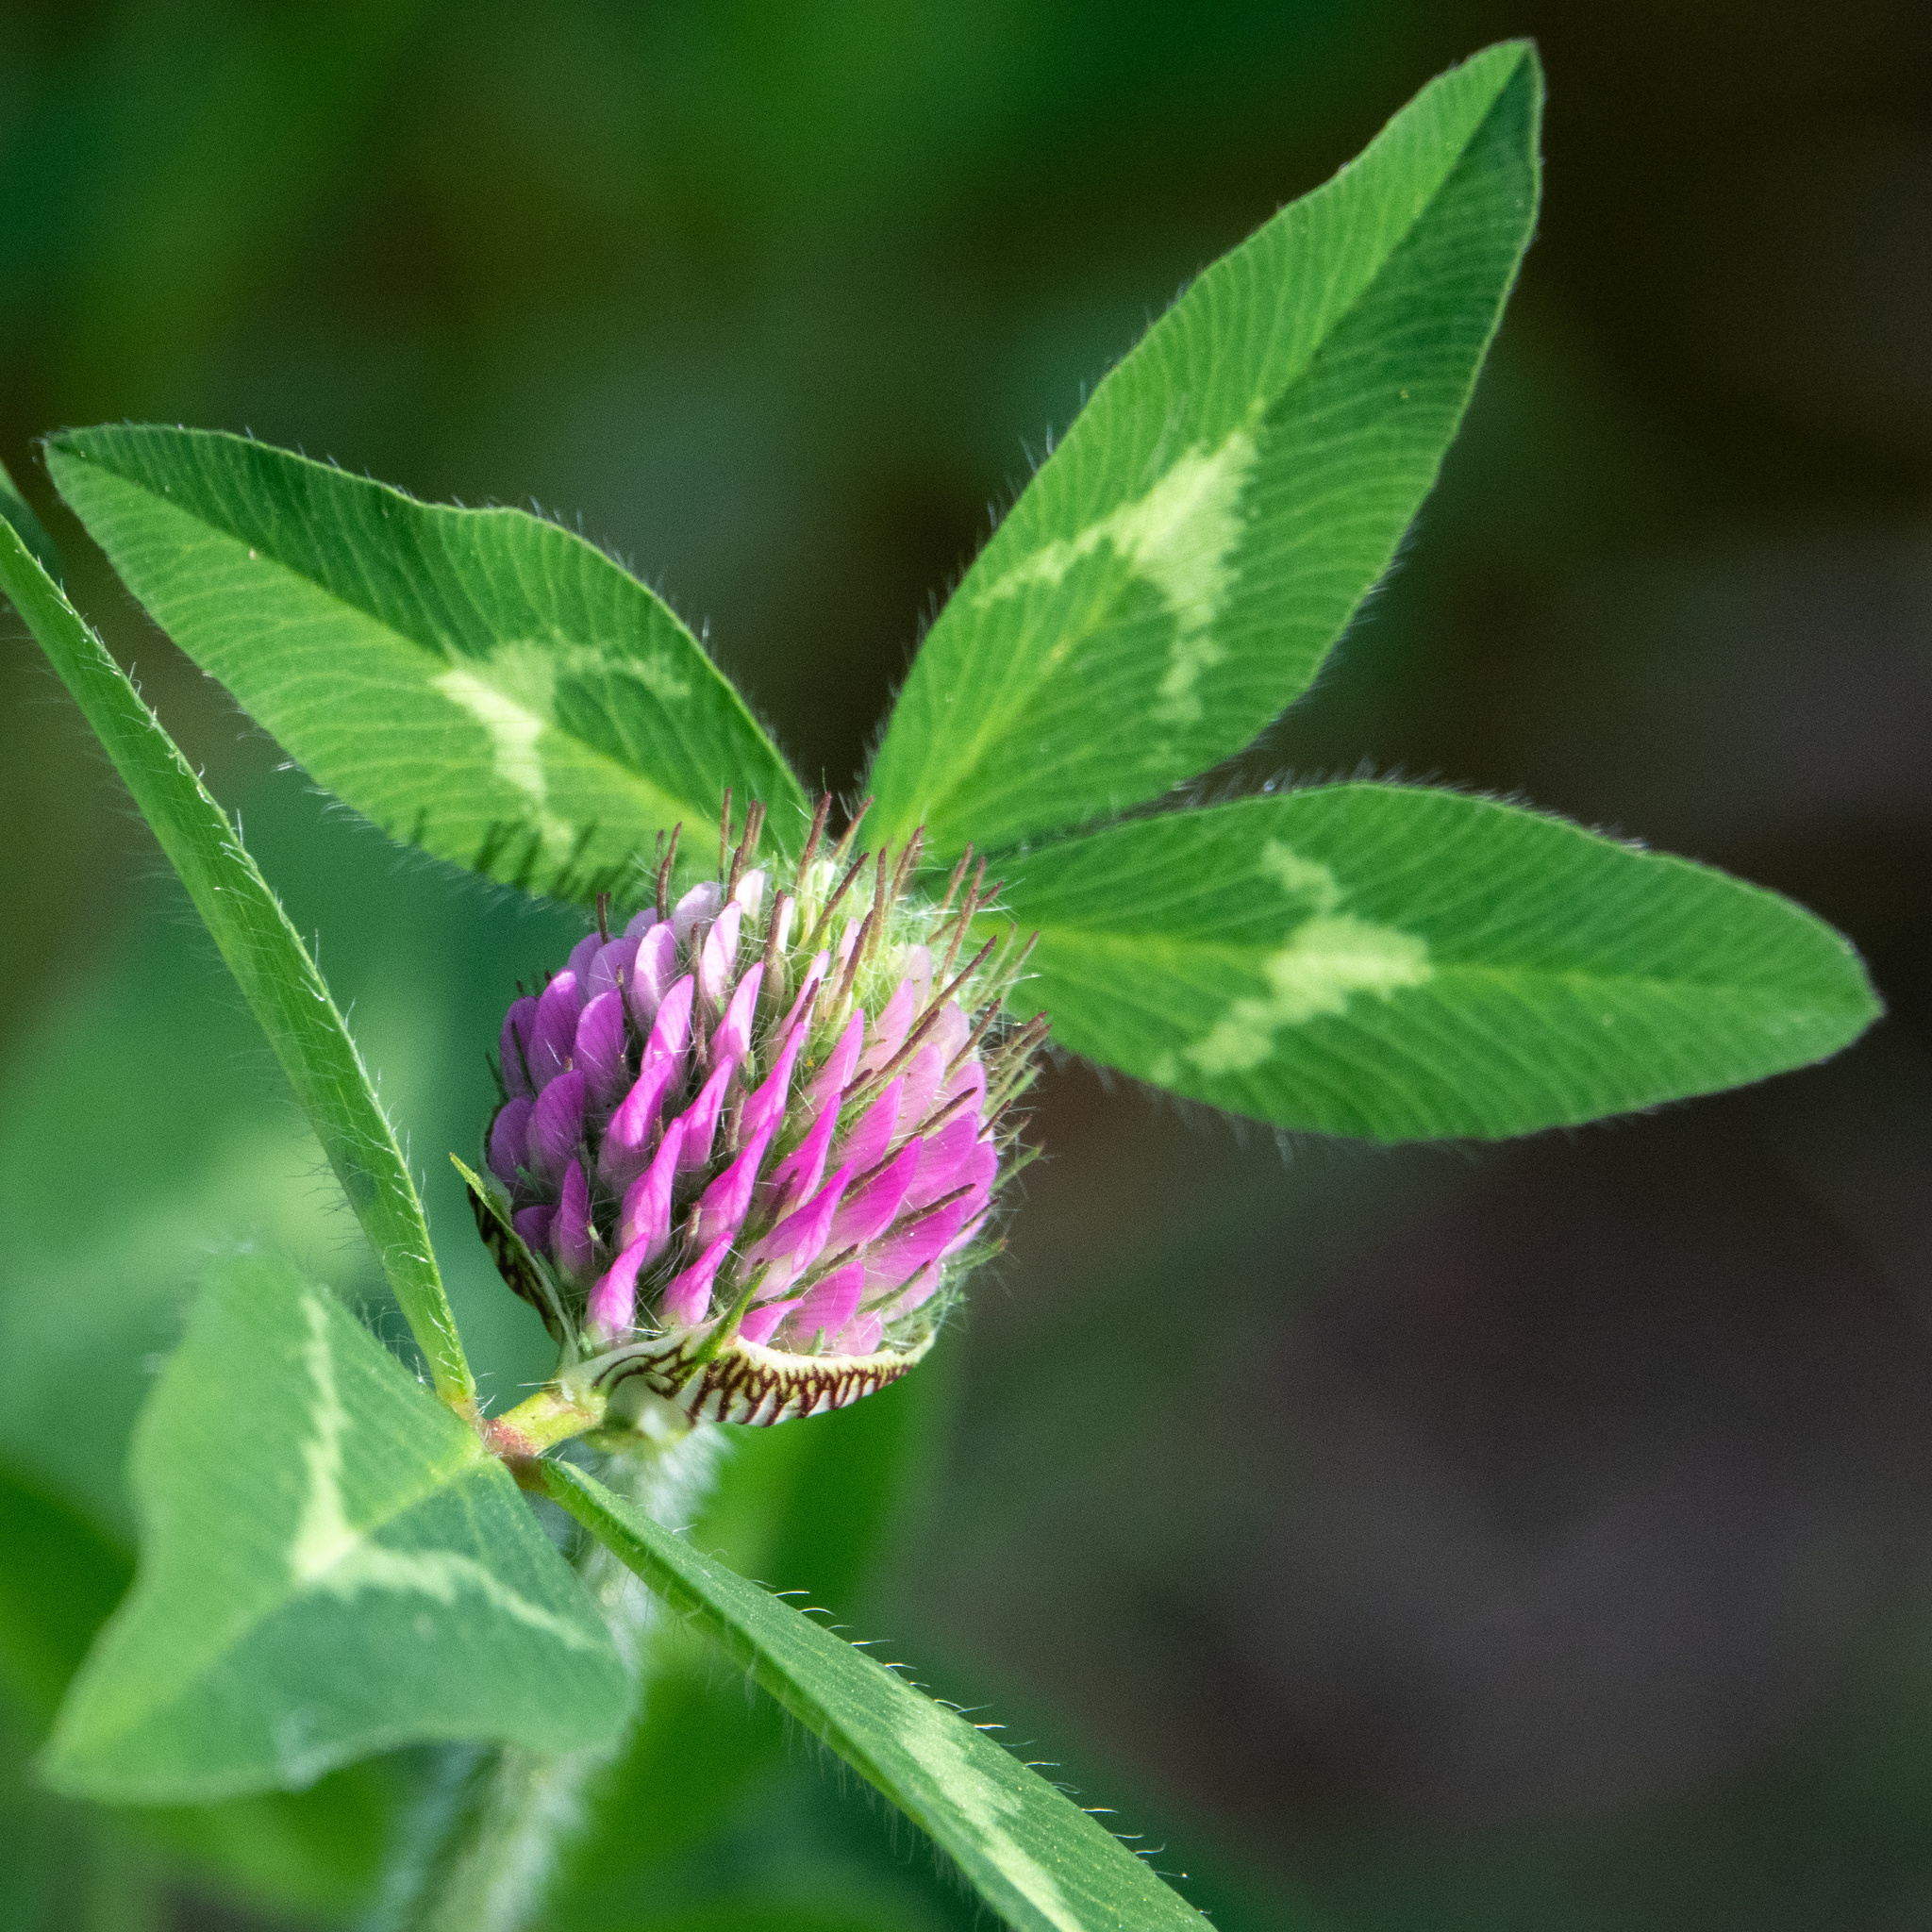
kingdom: Plantae
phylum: Tracheophyta
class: Magnoliopsida
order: Fabales
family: Fabaceae
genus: Trifolium
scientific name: Trifolium pratense
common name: Red clover
